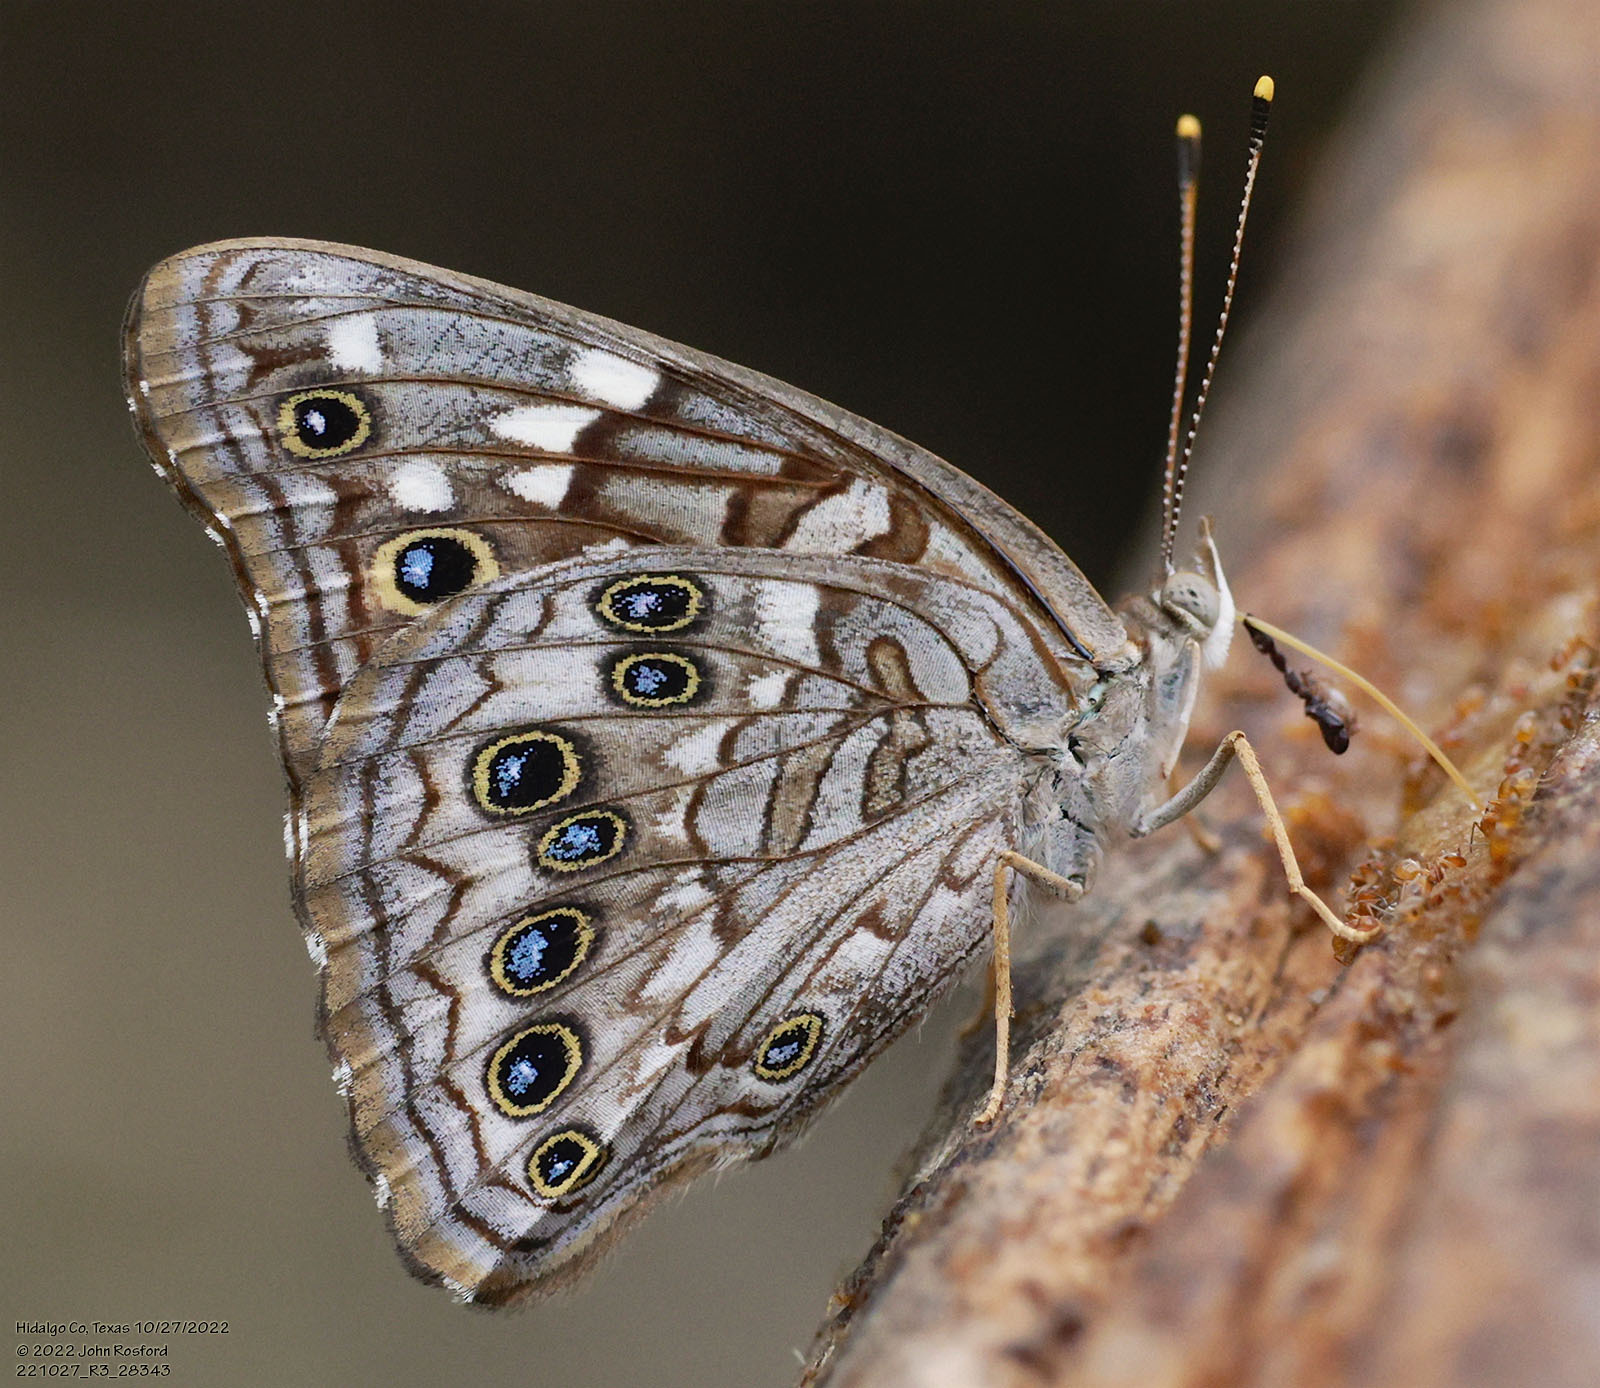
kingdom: Animalia
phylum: Arthropoda
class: Insecta
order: Lepidoptera
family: Nymphalidae
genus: Asterocampa
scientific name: Asterocampa leilia
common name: Empress leilia
